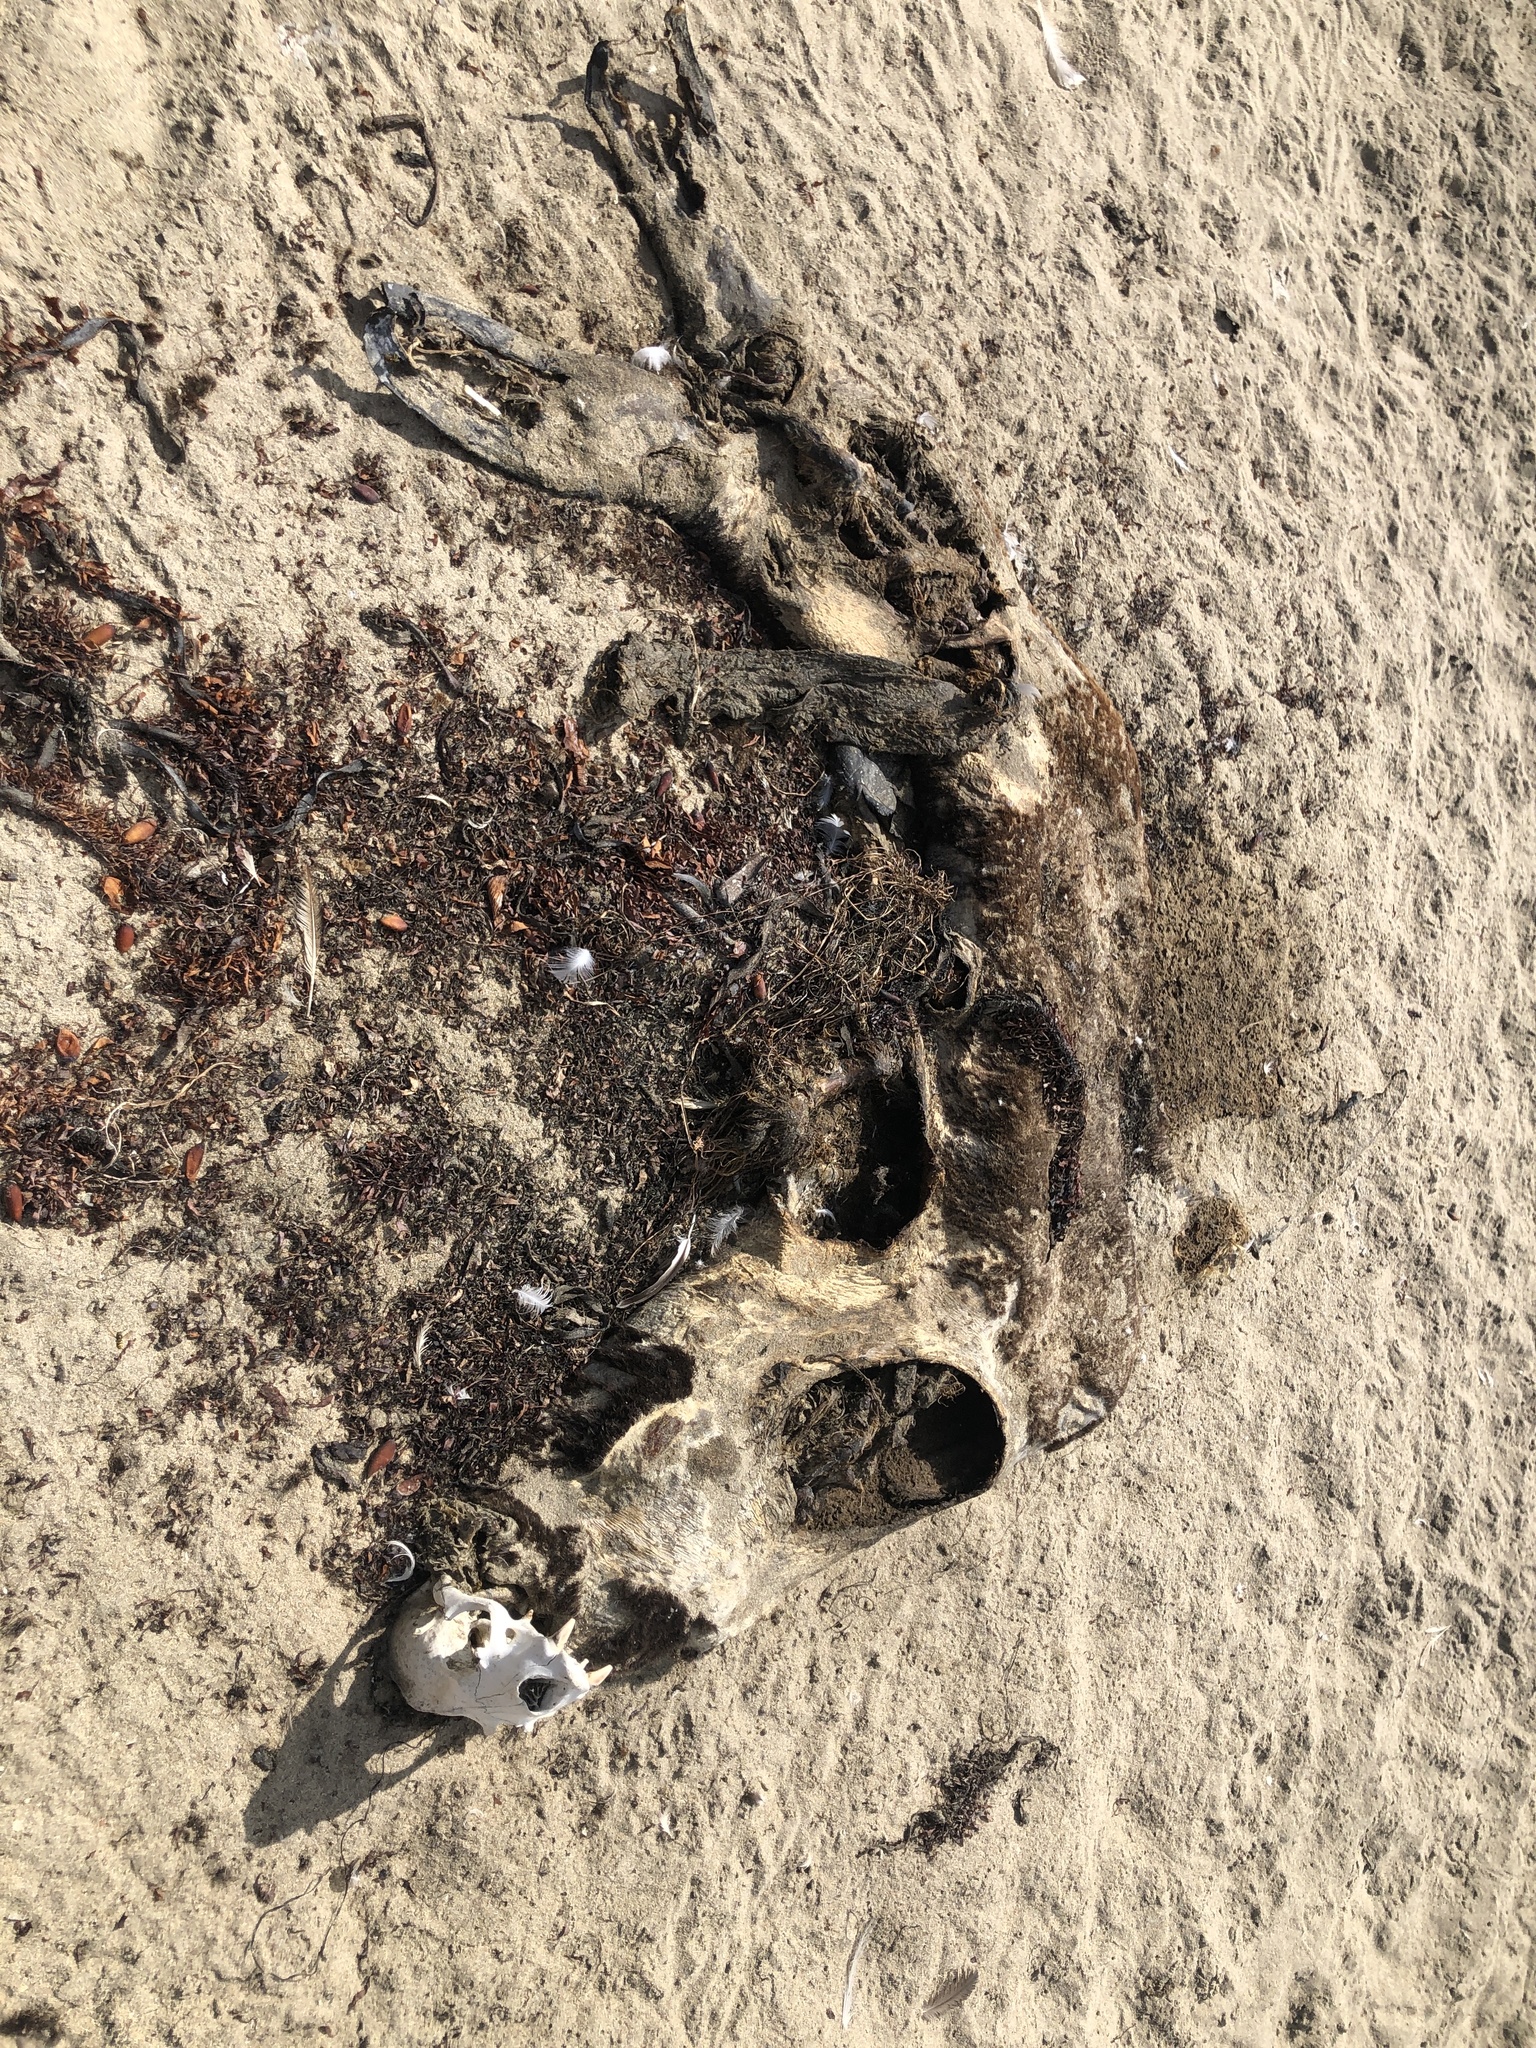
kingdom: Animalia
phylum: Chordata
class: Mammalia
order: Carnivora
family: Otariidae
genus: Zalophus
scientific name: Zalophus californianus
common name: California sea lion
